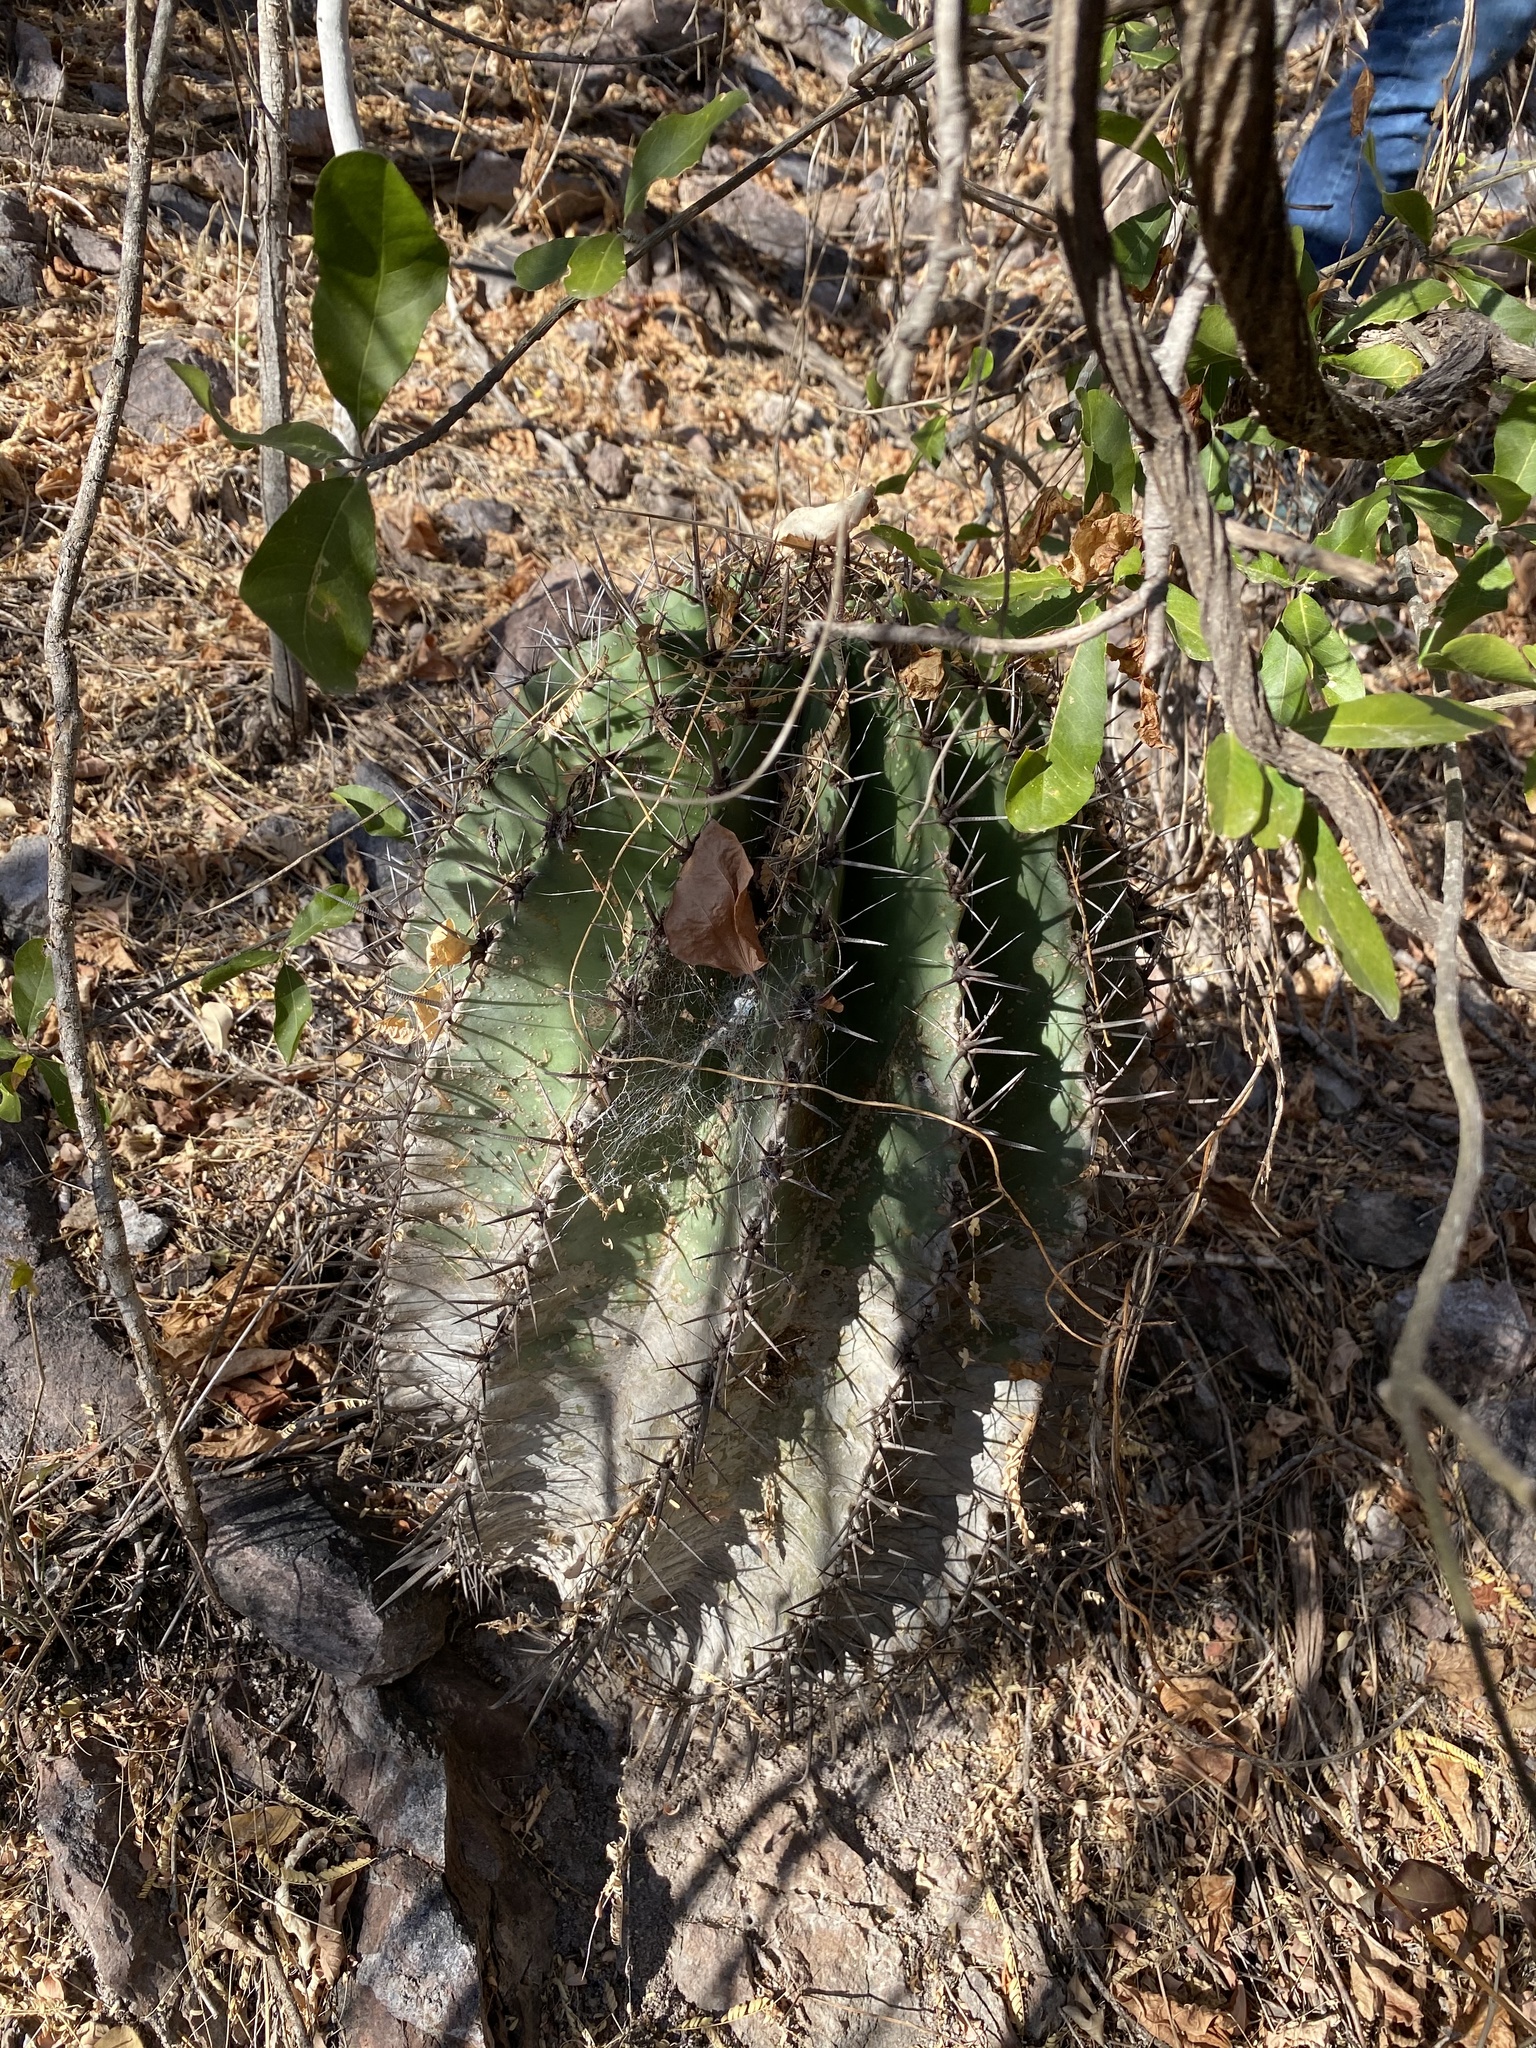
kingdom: Plantae
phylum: Tracheophyta
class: Magnoliopsida
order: Caryophyllales
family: Cactaceae
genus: Ferocactus
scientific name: Ferocactus wislizeni
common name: Candy barrel cactus
